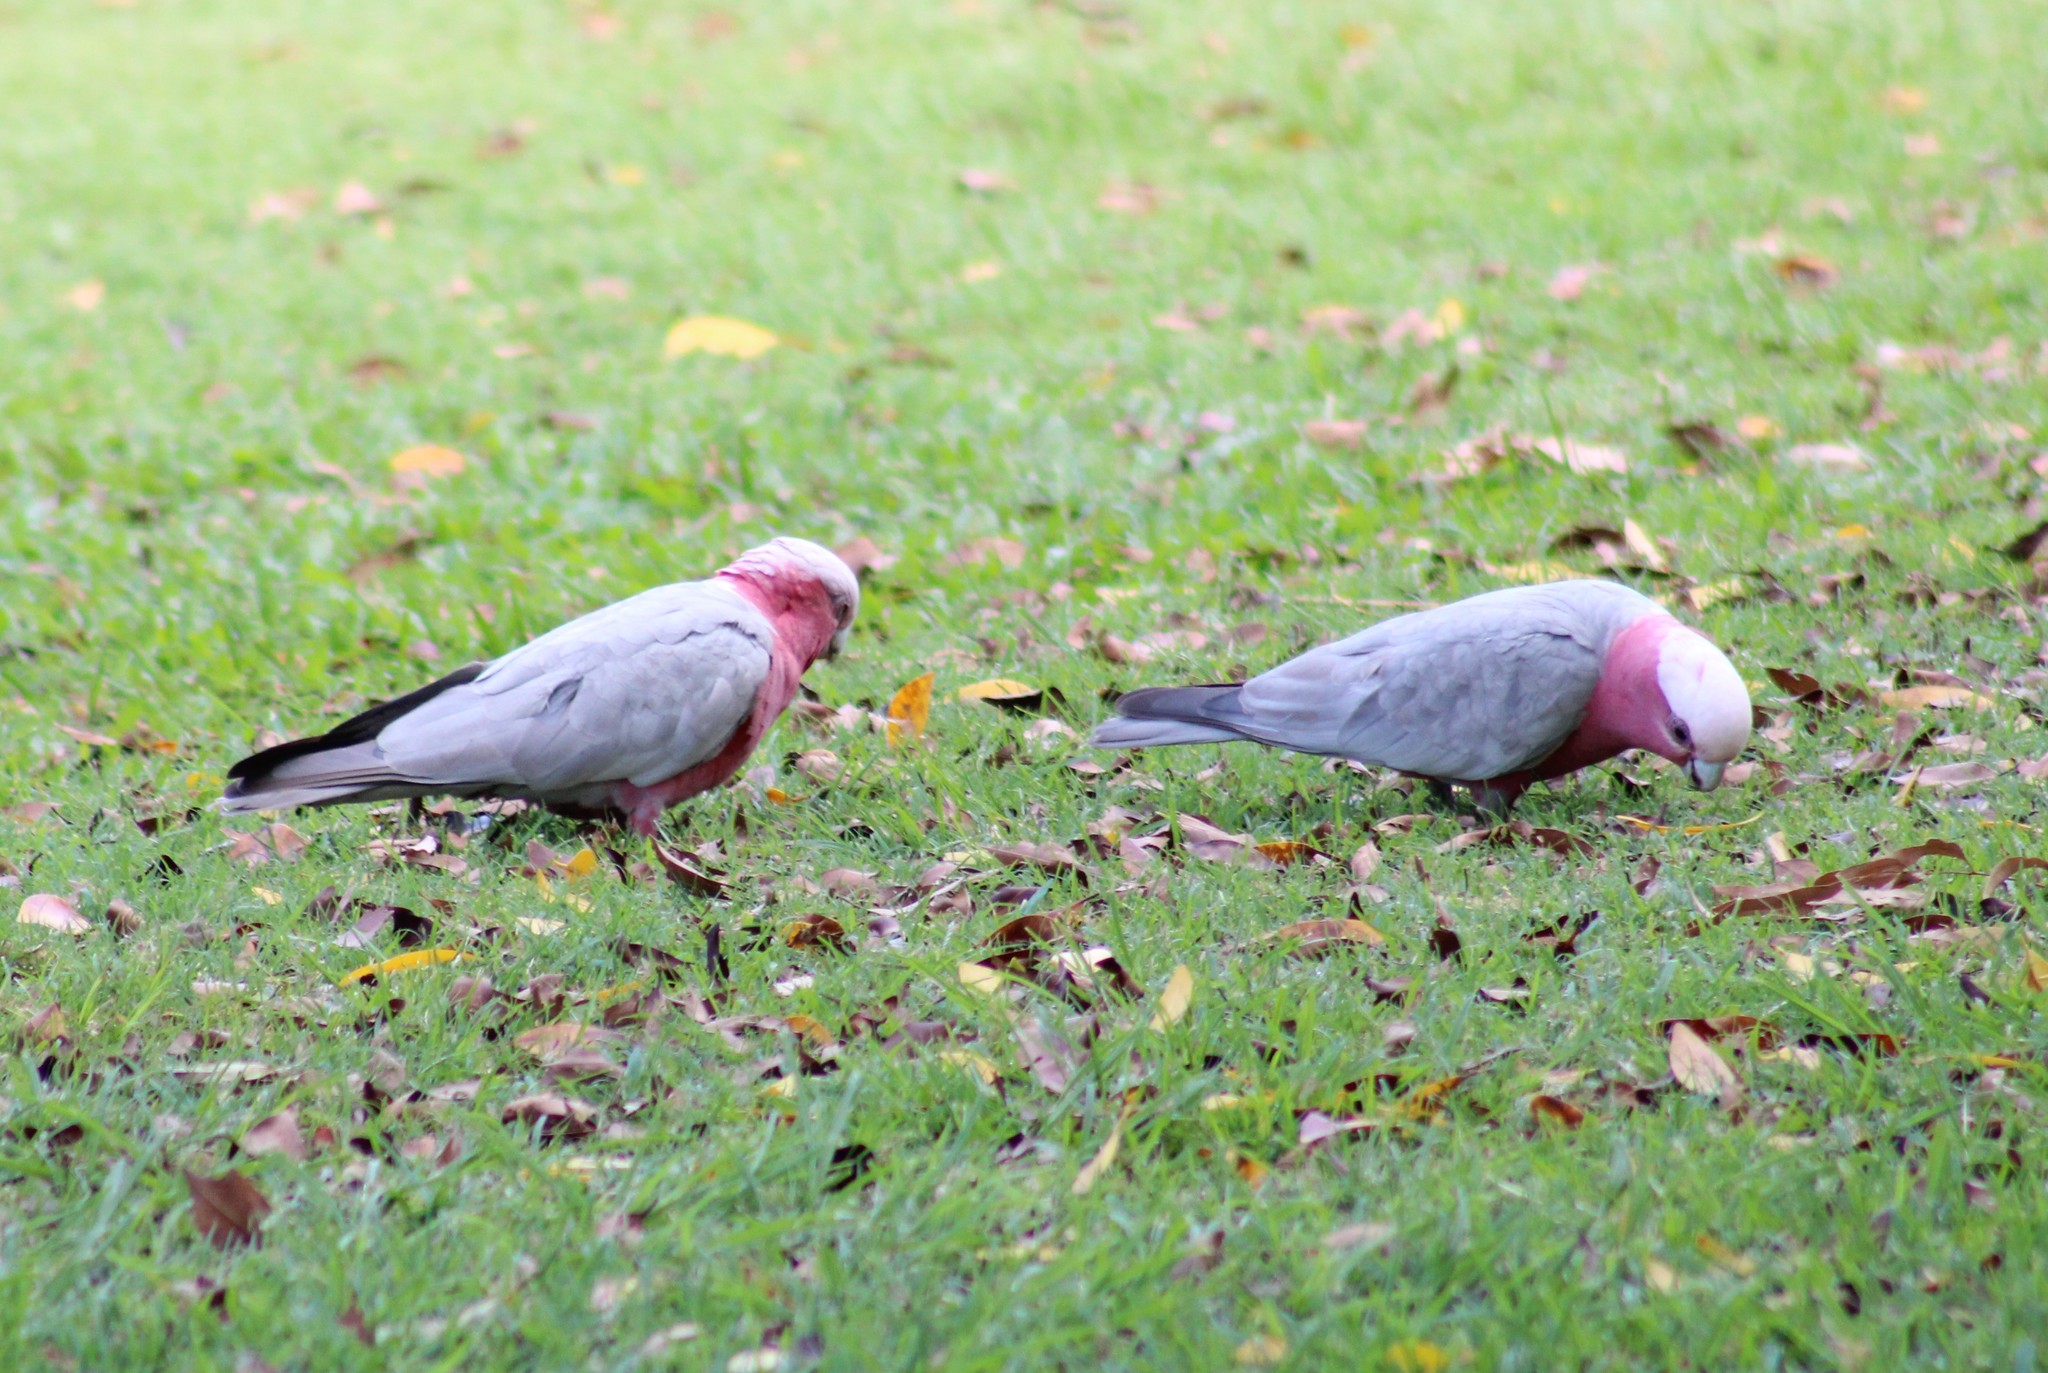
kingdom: Animalia
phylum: Chordata
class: Aves
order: Psittaciformes
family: Psittacidae
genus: Eolophus
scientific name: Eolophus roseicapilla
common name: Galah
